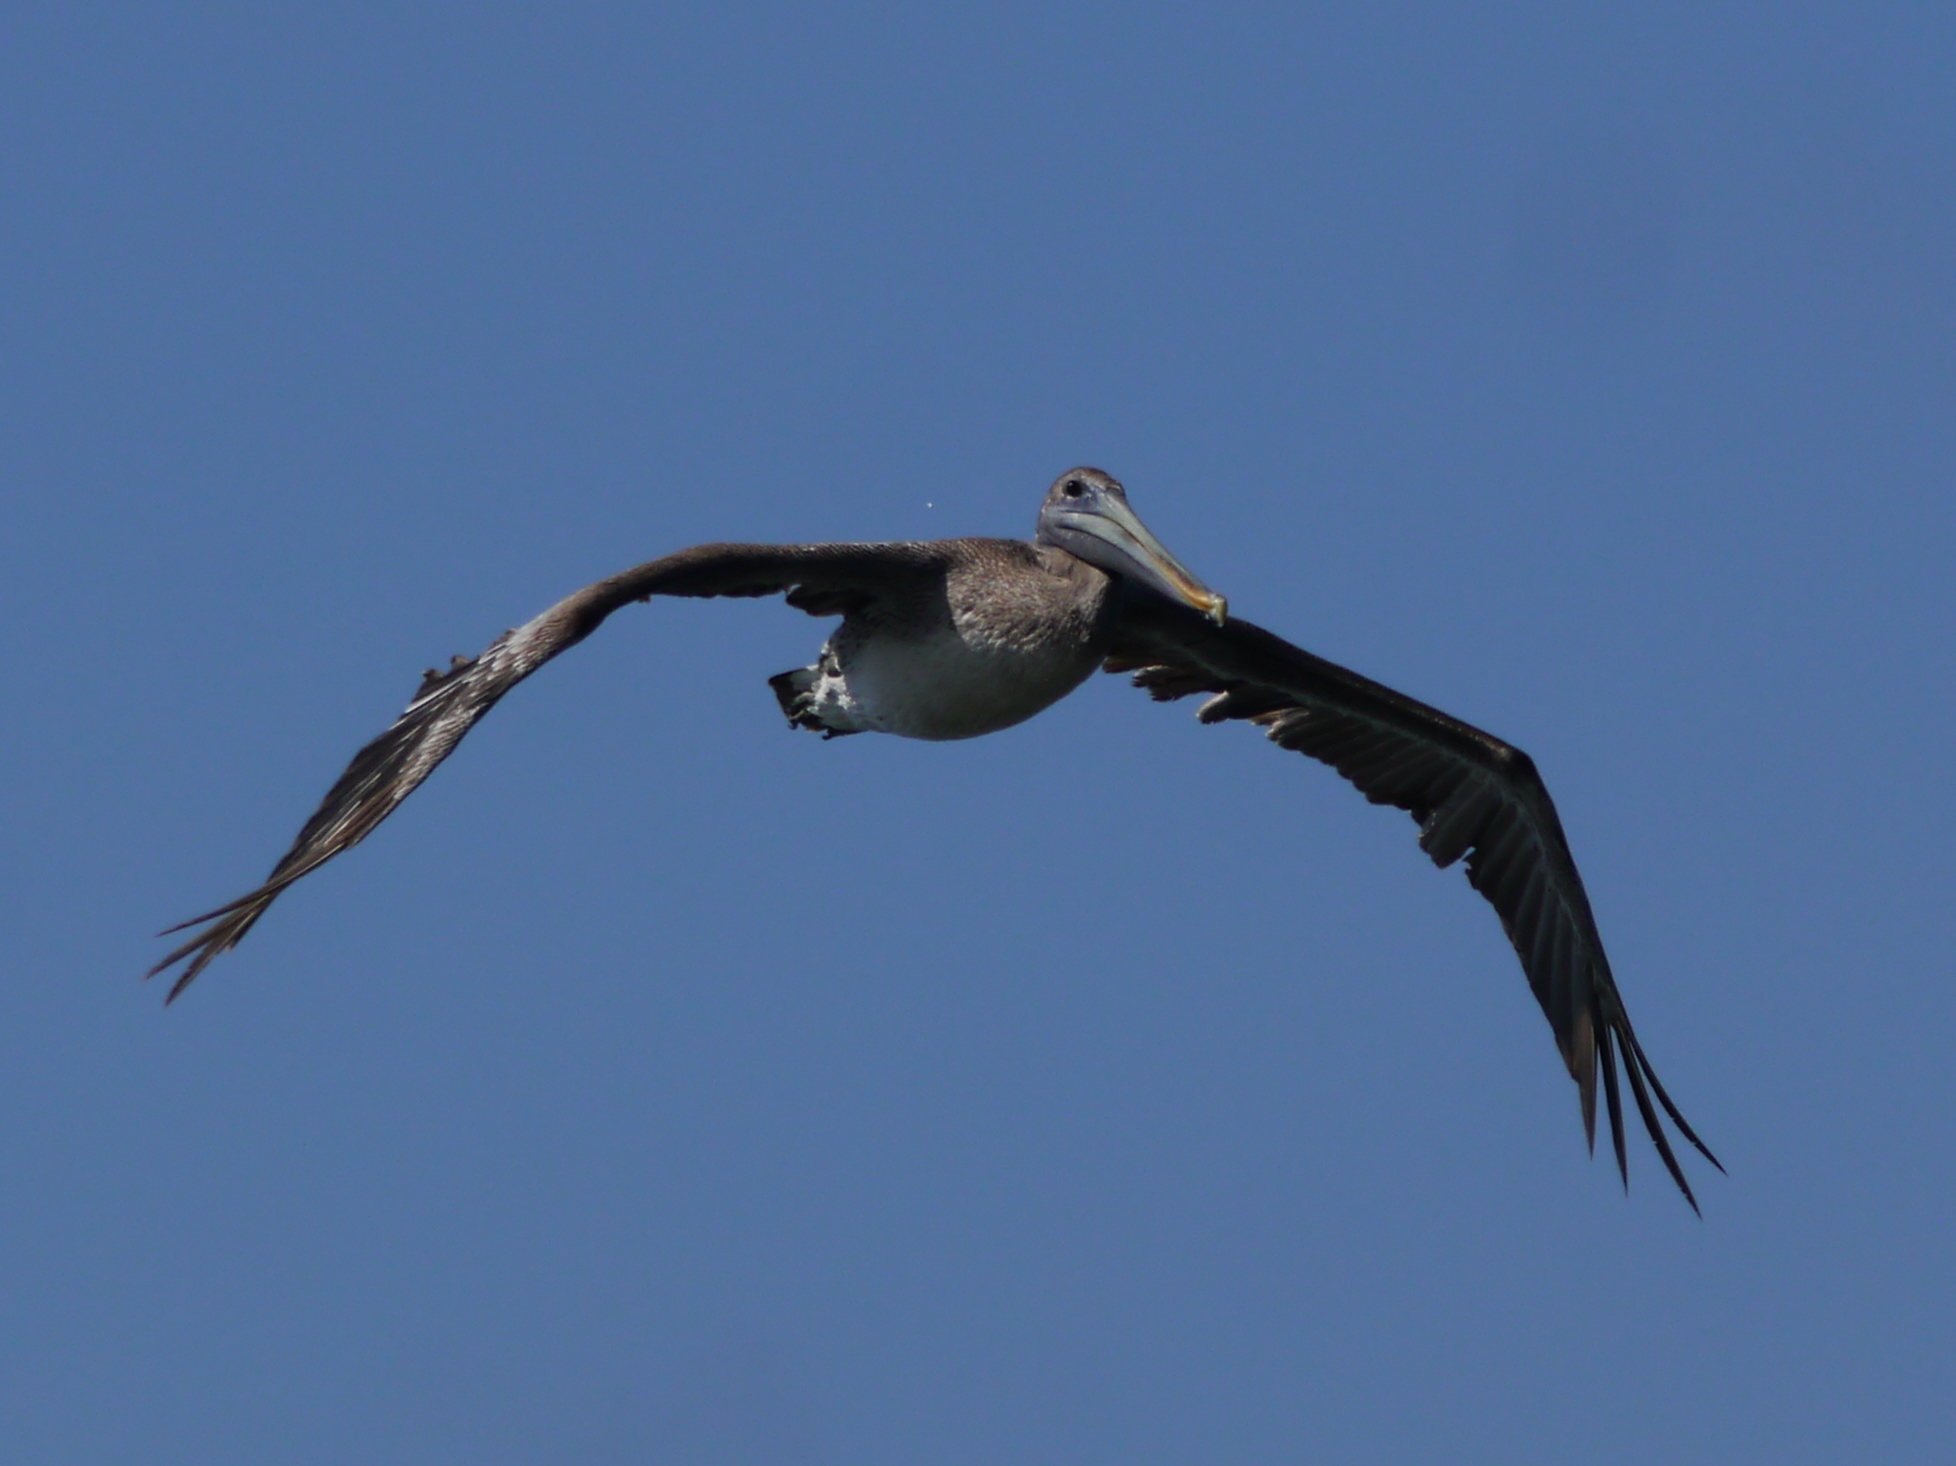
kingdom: Animalia
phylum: Chordata
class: Aves
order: Pelecaniformes
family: Pelecanidae
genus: Pelecanus
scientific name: Pelecanus occidentalis
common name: Brown pelican
